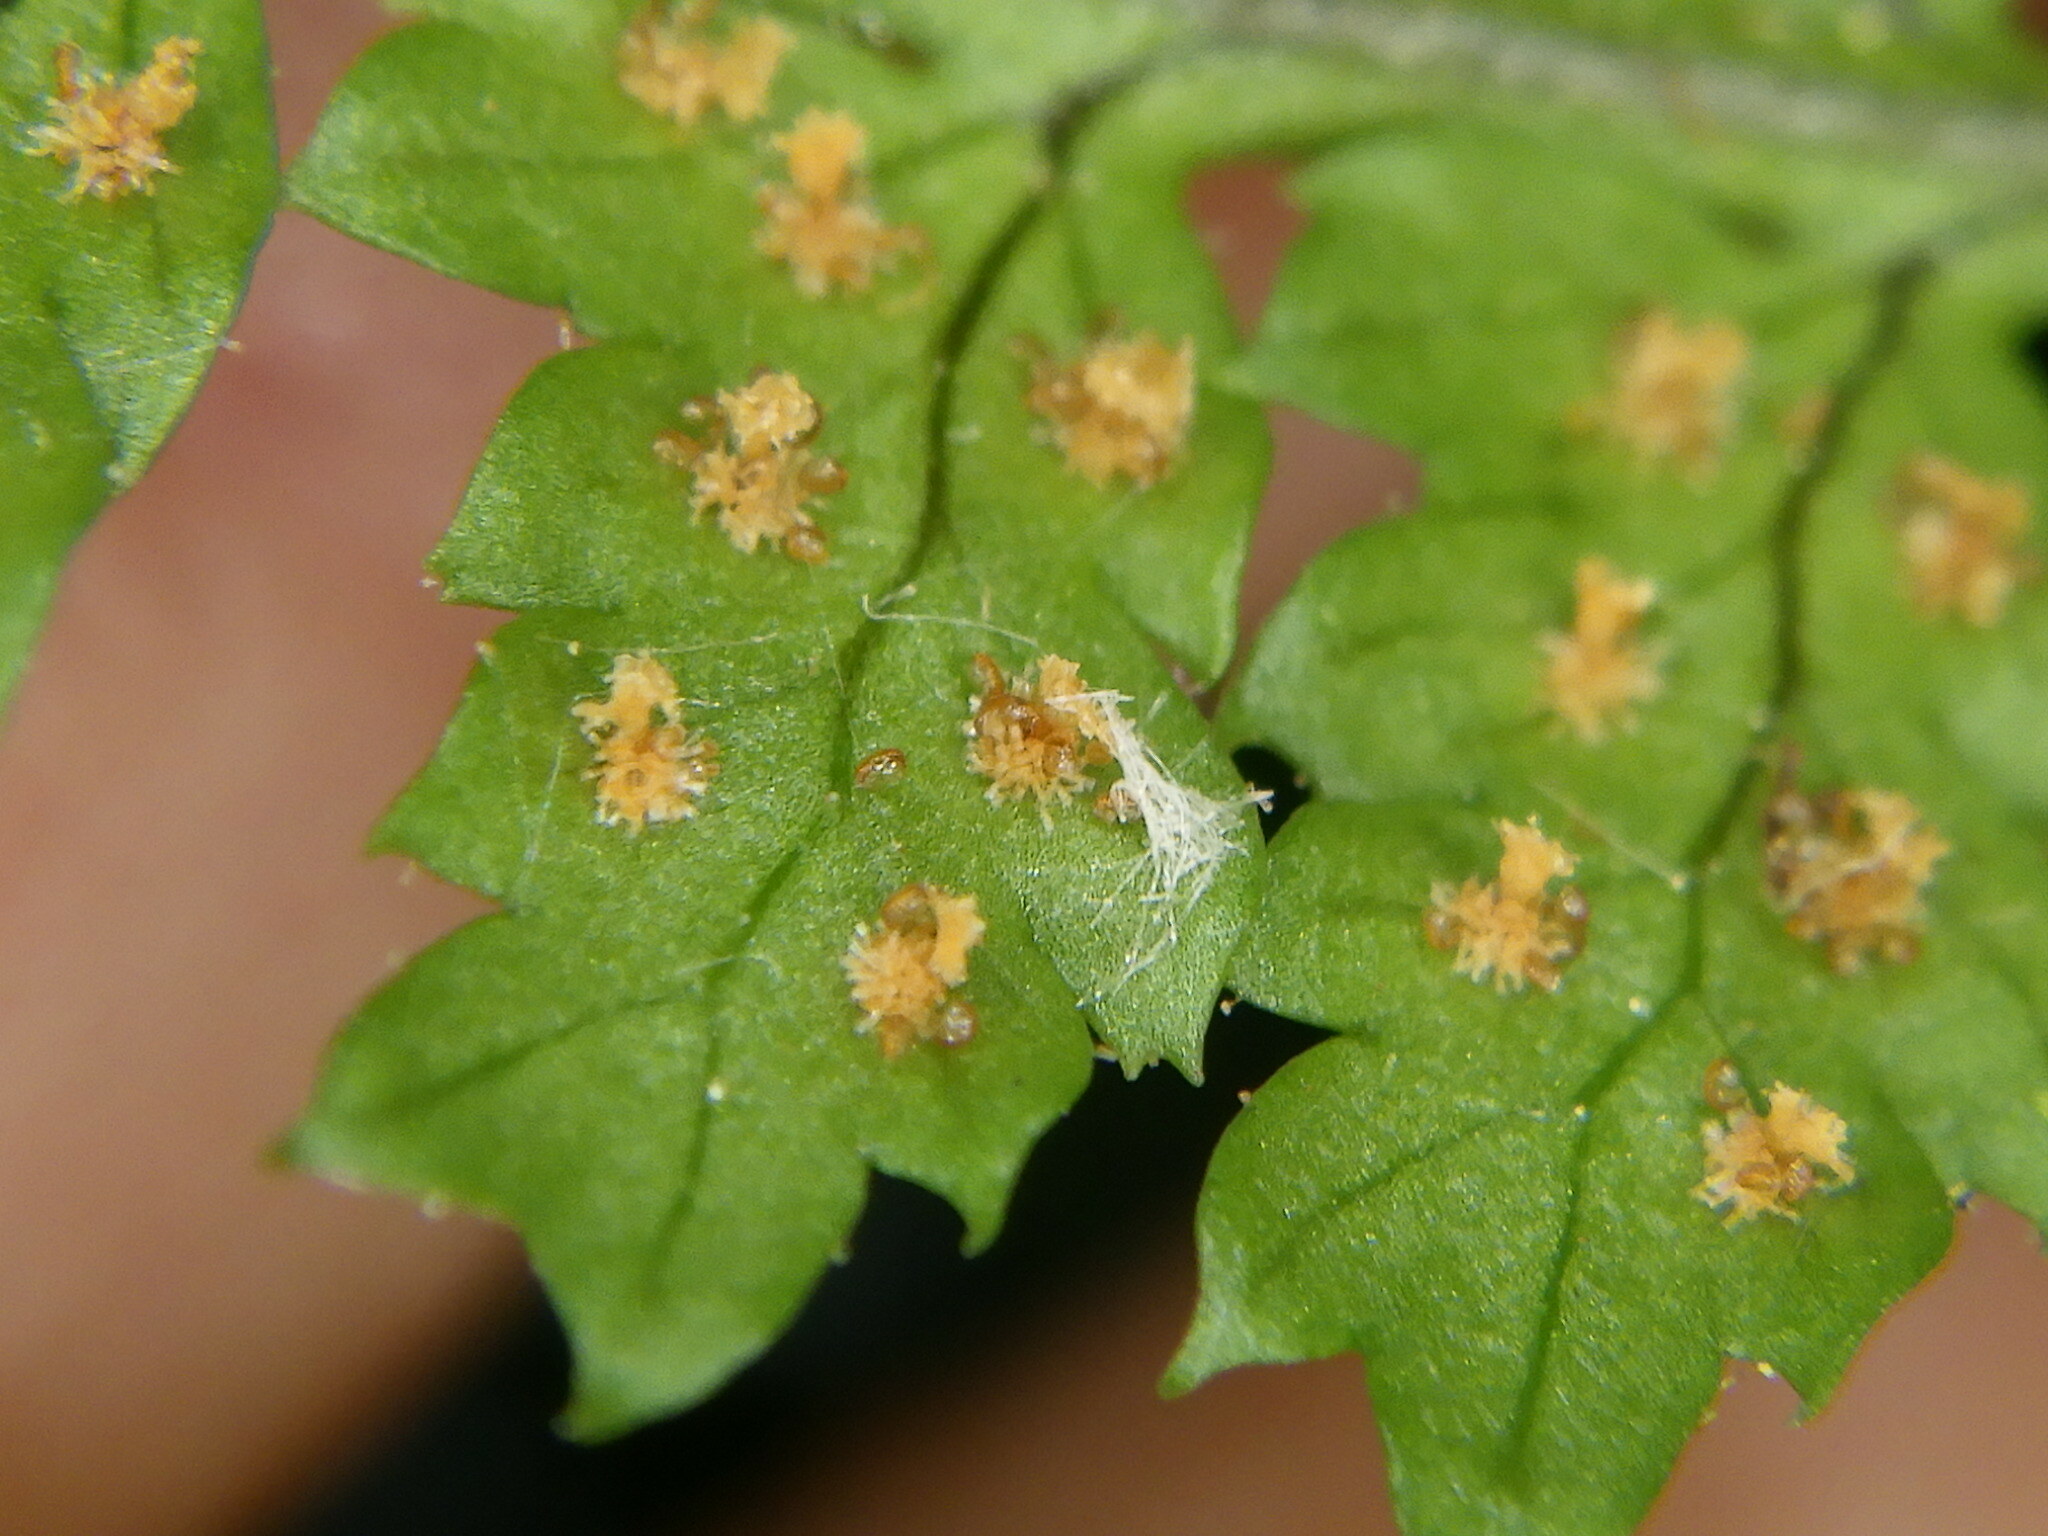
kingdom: Plantae
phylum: Tracheophyta
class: Polypodiopsida
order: Polypodiales
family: Dryopteridaceae
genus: Dryopteris
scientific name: Dryopteris intermedia
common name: Evergreen wood fern
